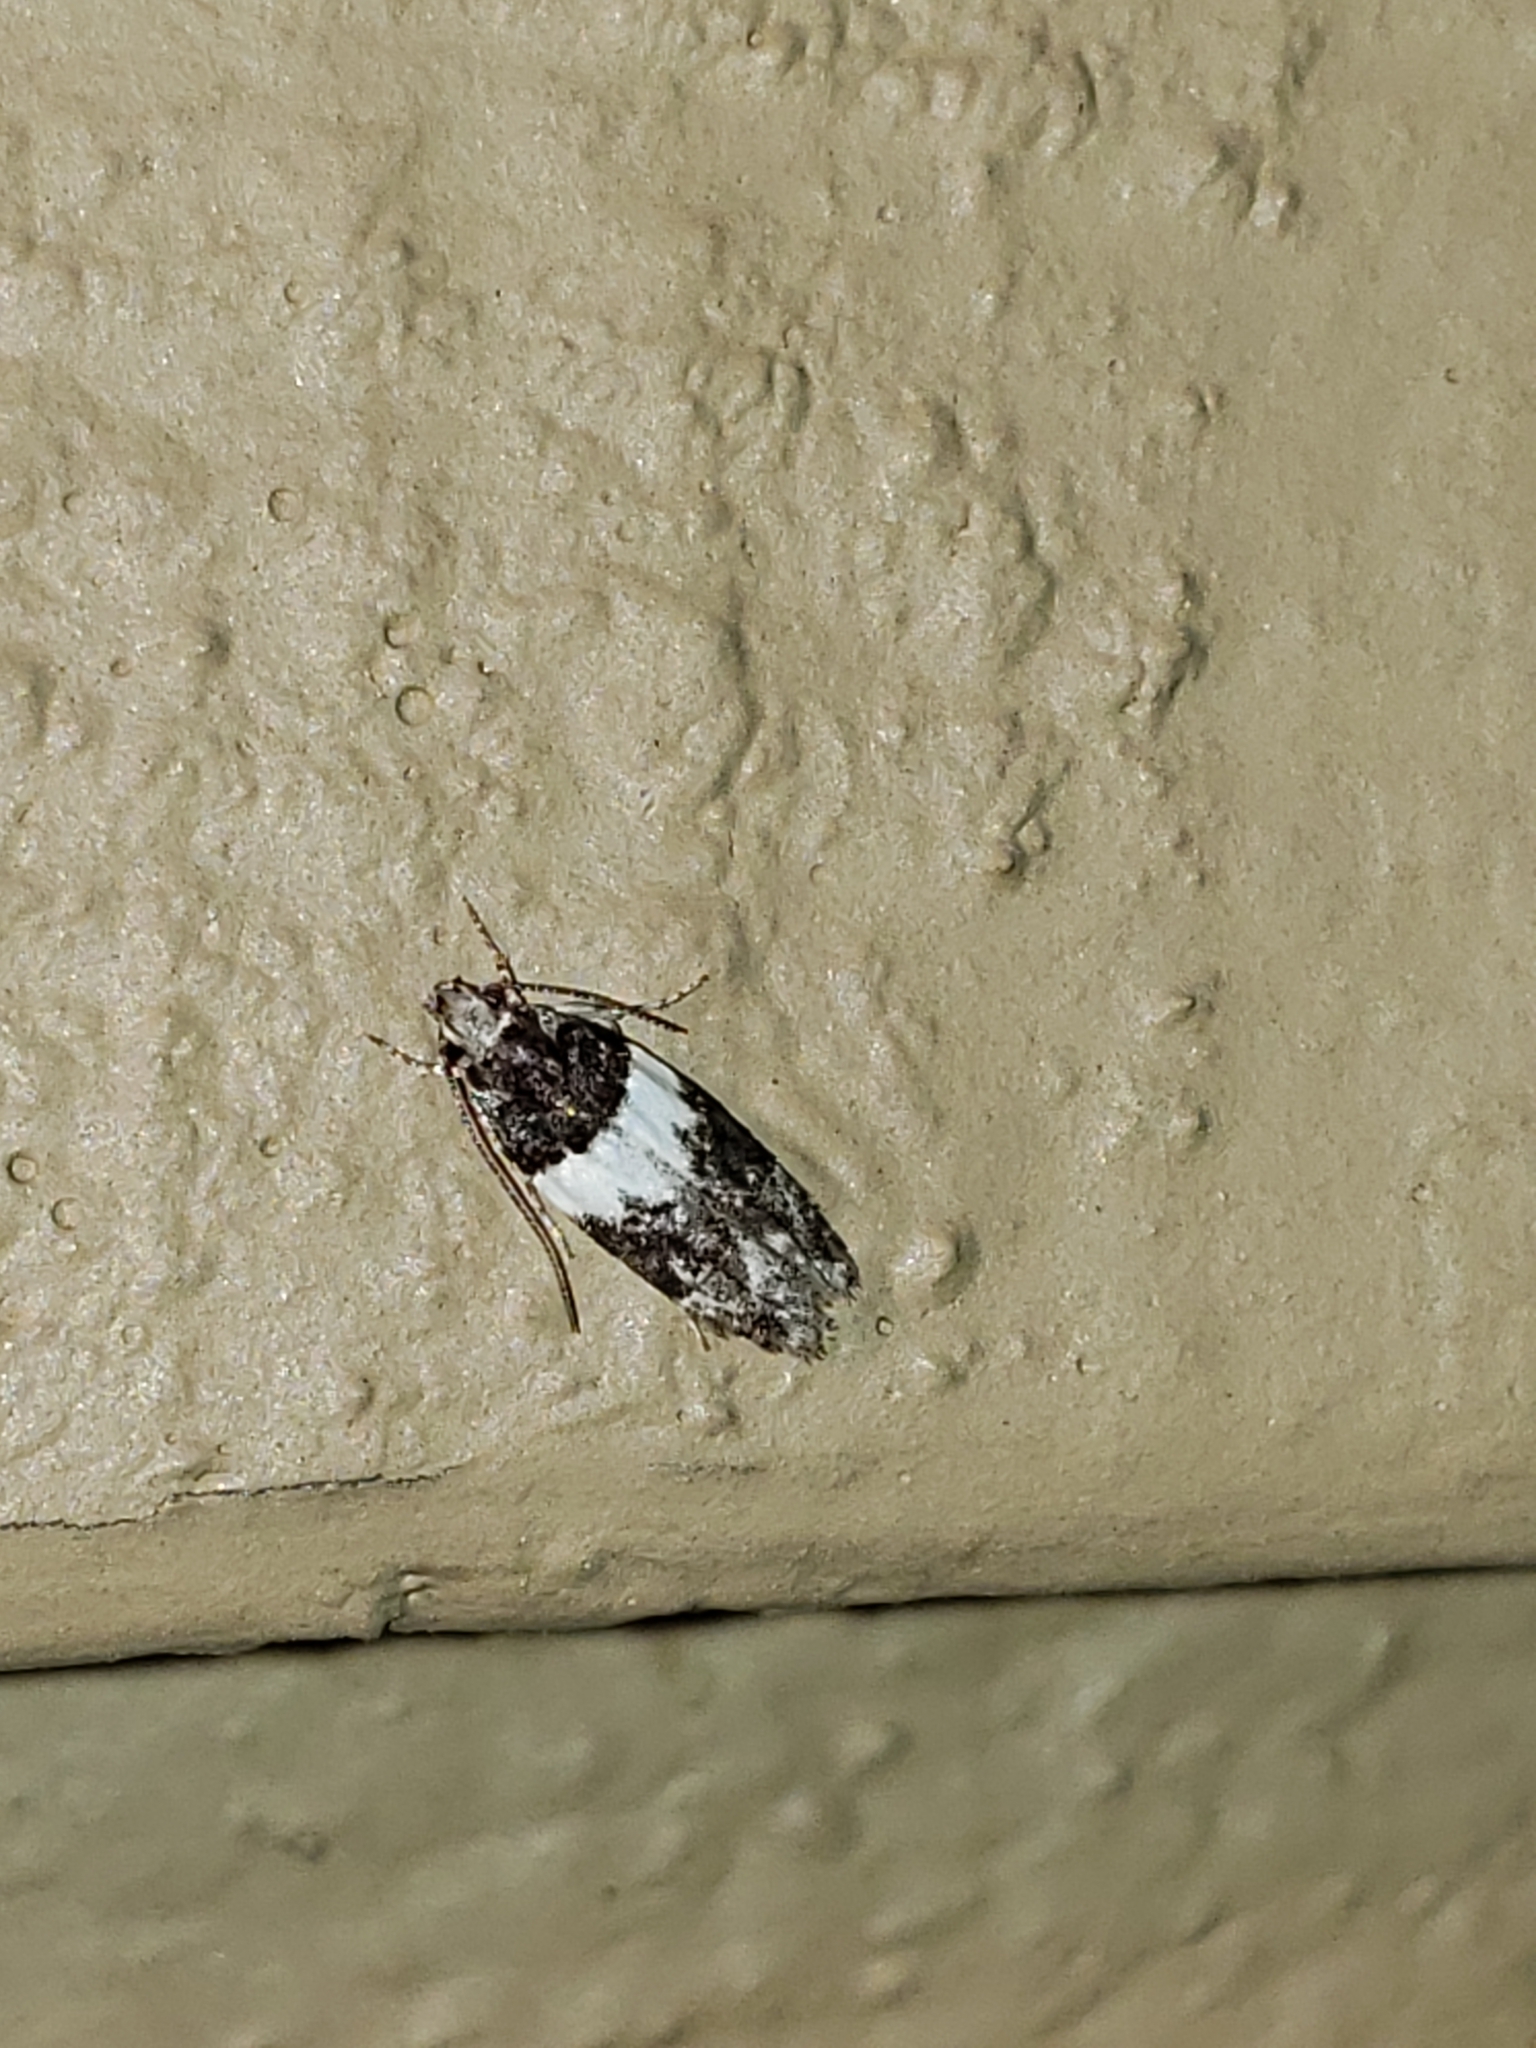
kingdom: Animalia
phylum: Arthropoda
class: Insecta
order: Lepidoptera
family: Gelechiidae
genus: Pubitelphusa
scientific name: Pubitelphusa latifasciella
